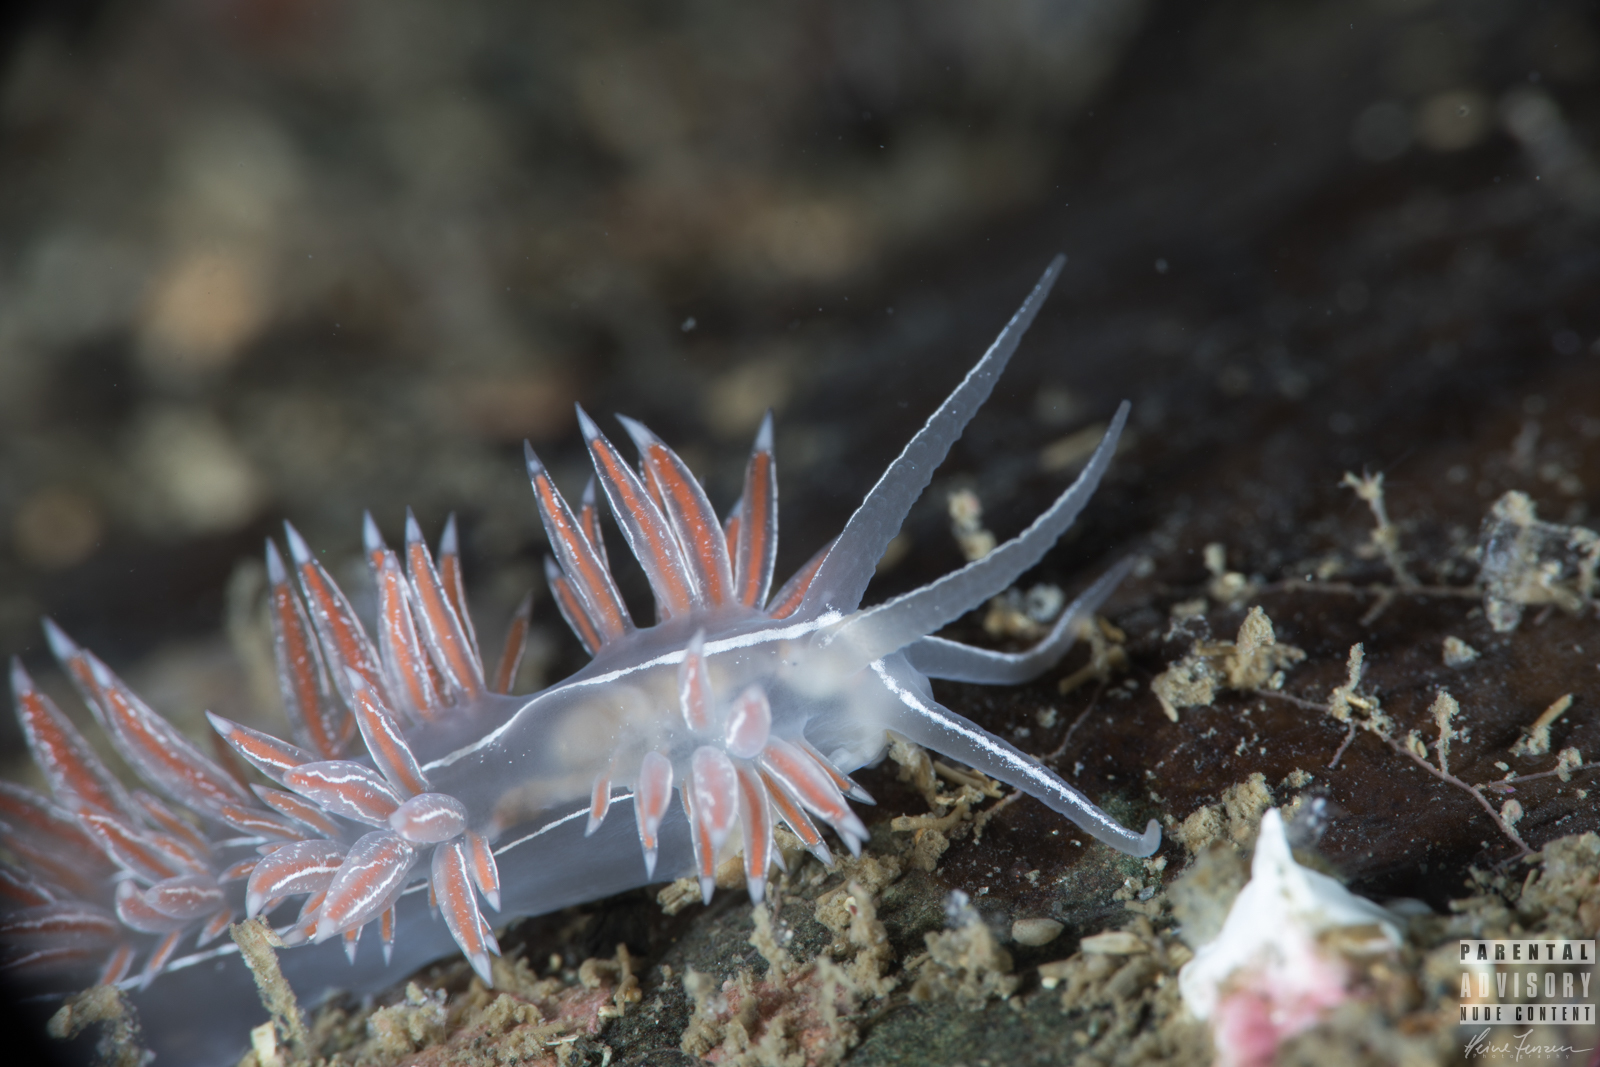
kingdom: Animalia
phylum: Mollusca
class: Gastropoda
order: Nudibranchia
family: Coryphellidae
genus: Coryphella
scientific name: Coryphella chriskaugei
